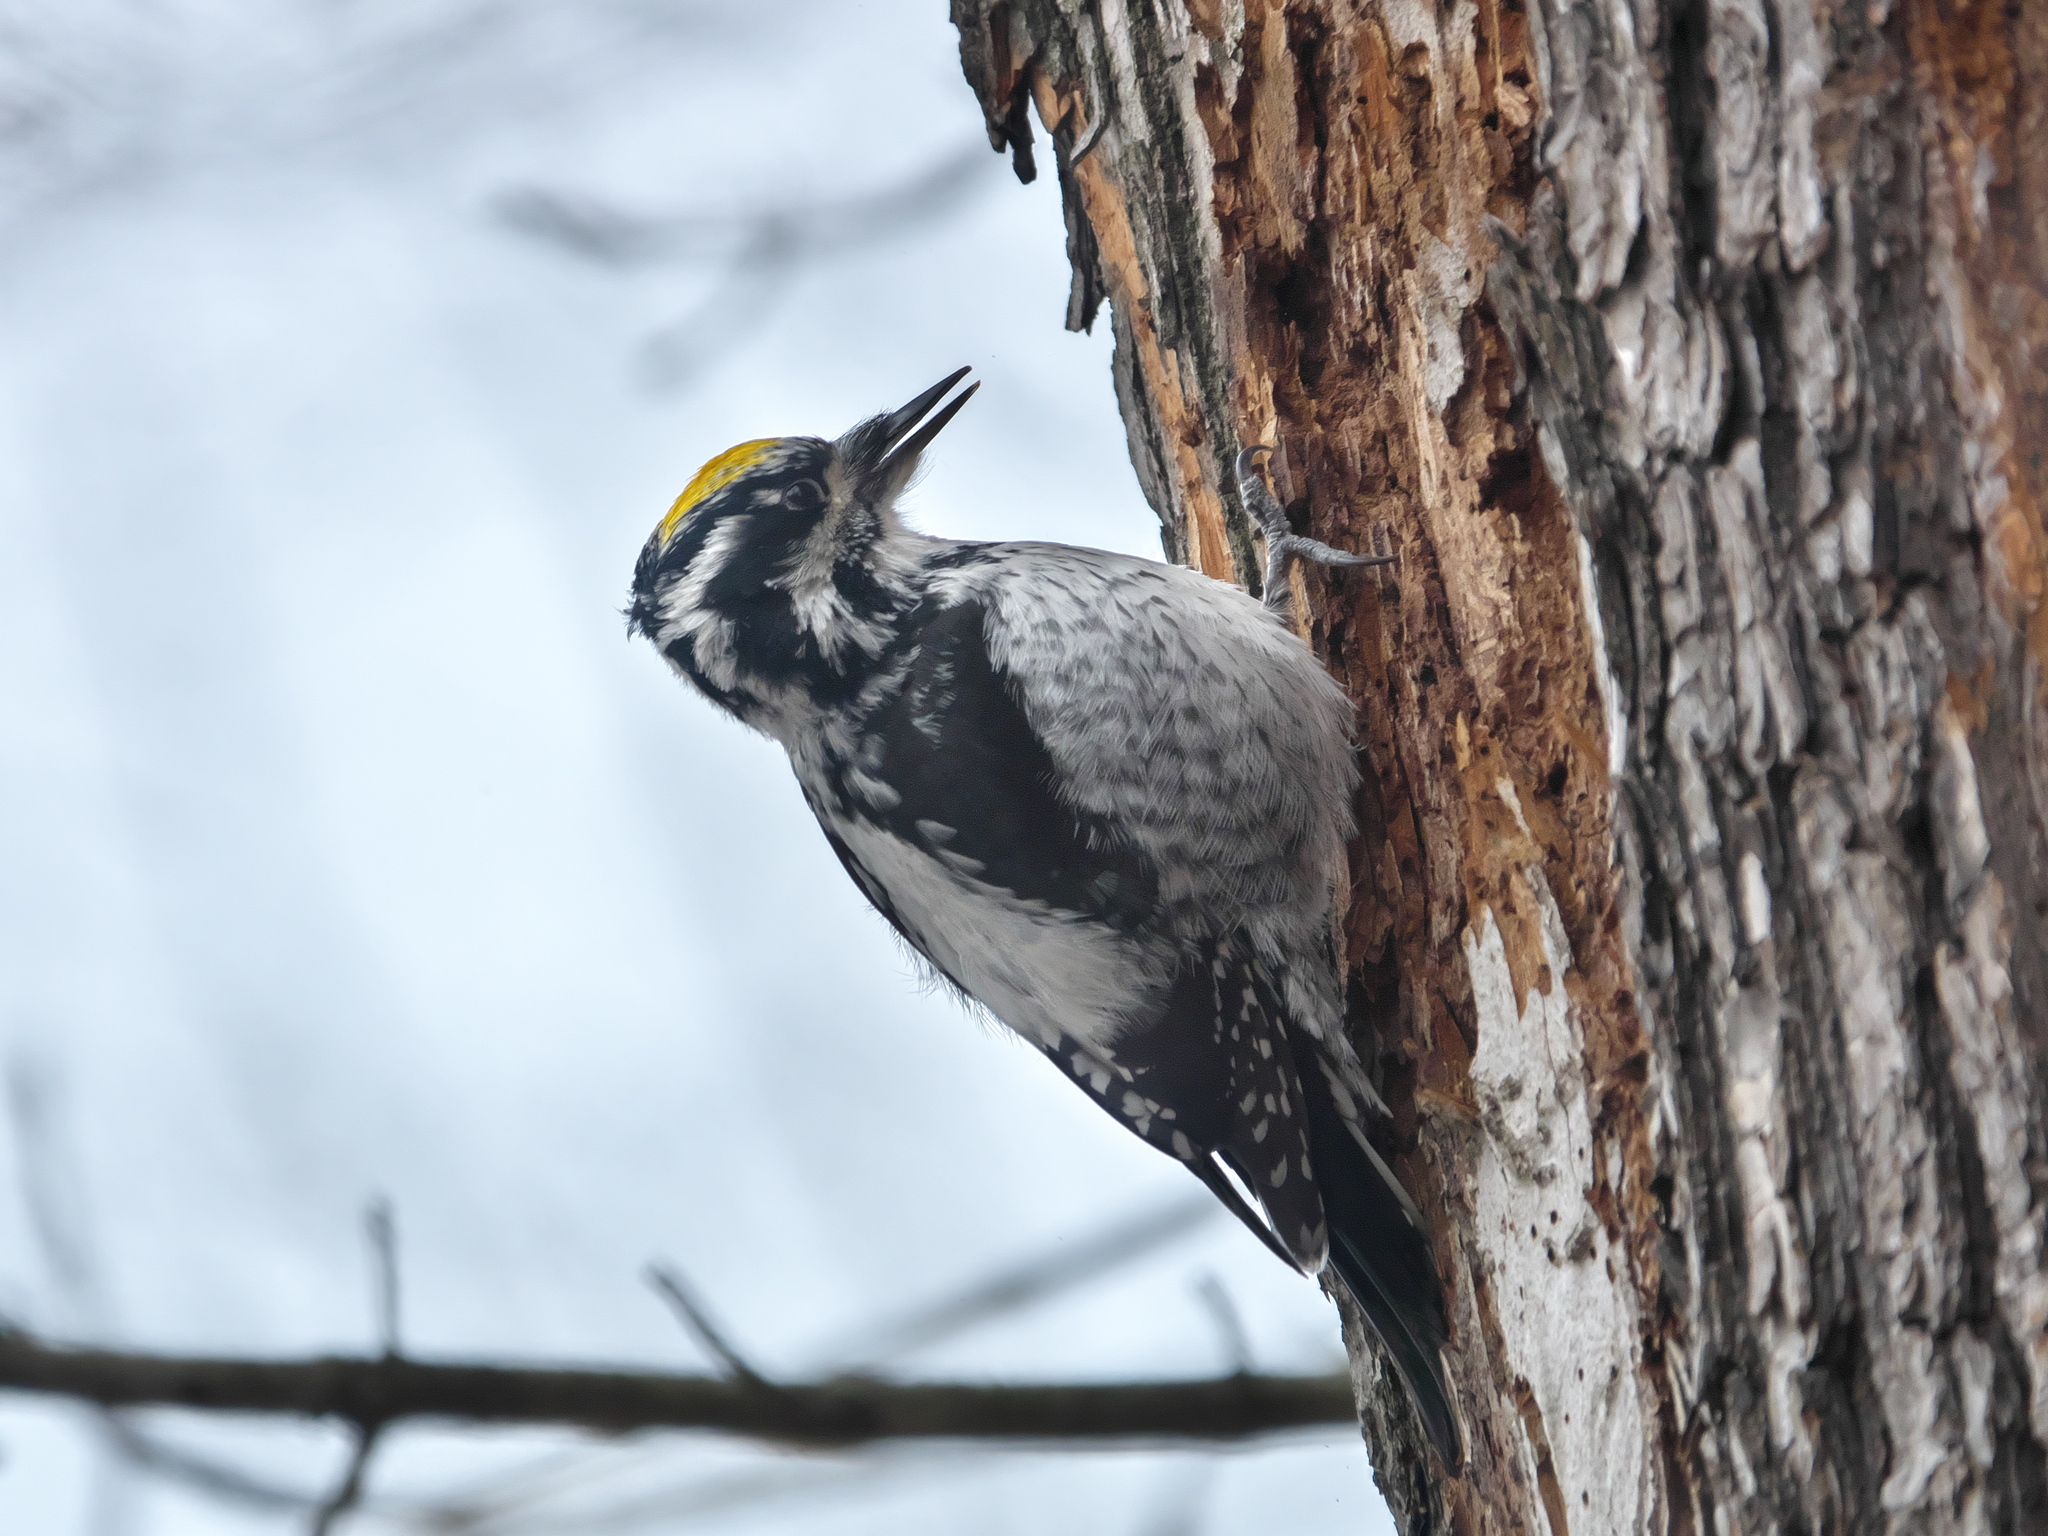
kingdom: Animalia
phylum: Chordata
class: Aves
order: Piciformes
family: Picidae
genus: Picoides
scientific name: Picoides tridactylus
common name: Eurasian three-toed woodpecker
